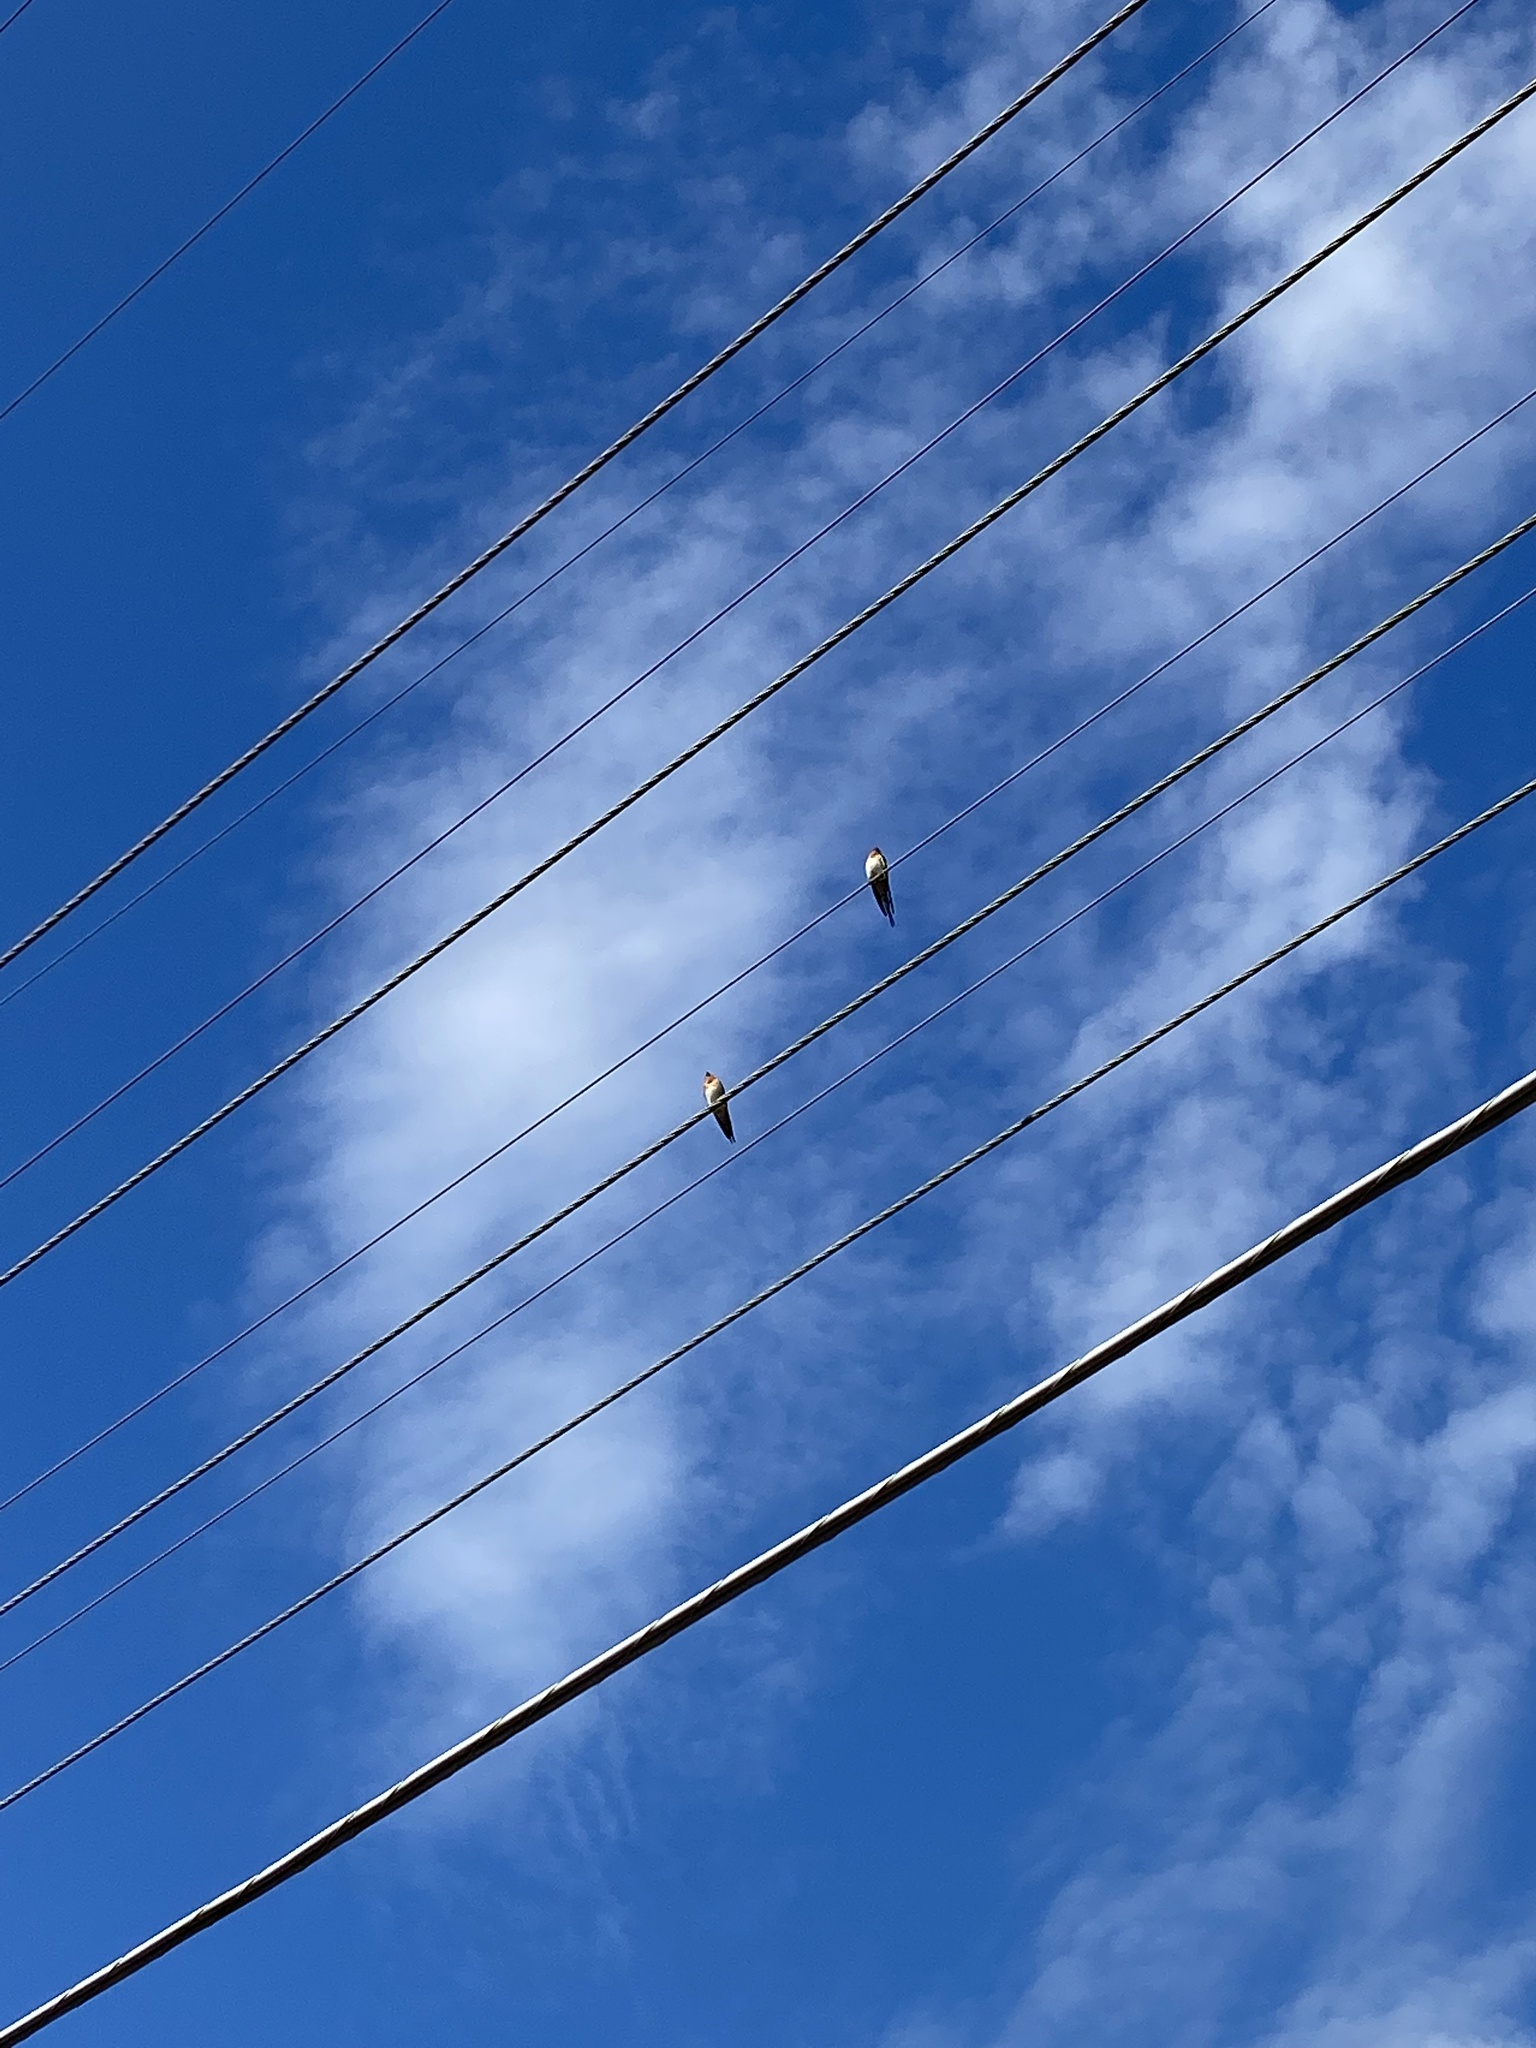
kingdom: Animalia
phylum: Chordata
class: Aves
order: Passeriformes
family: Hirundinidae
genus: Hirundo
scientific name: Hirundo neoxena
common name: Welcome swallow
